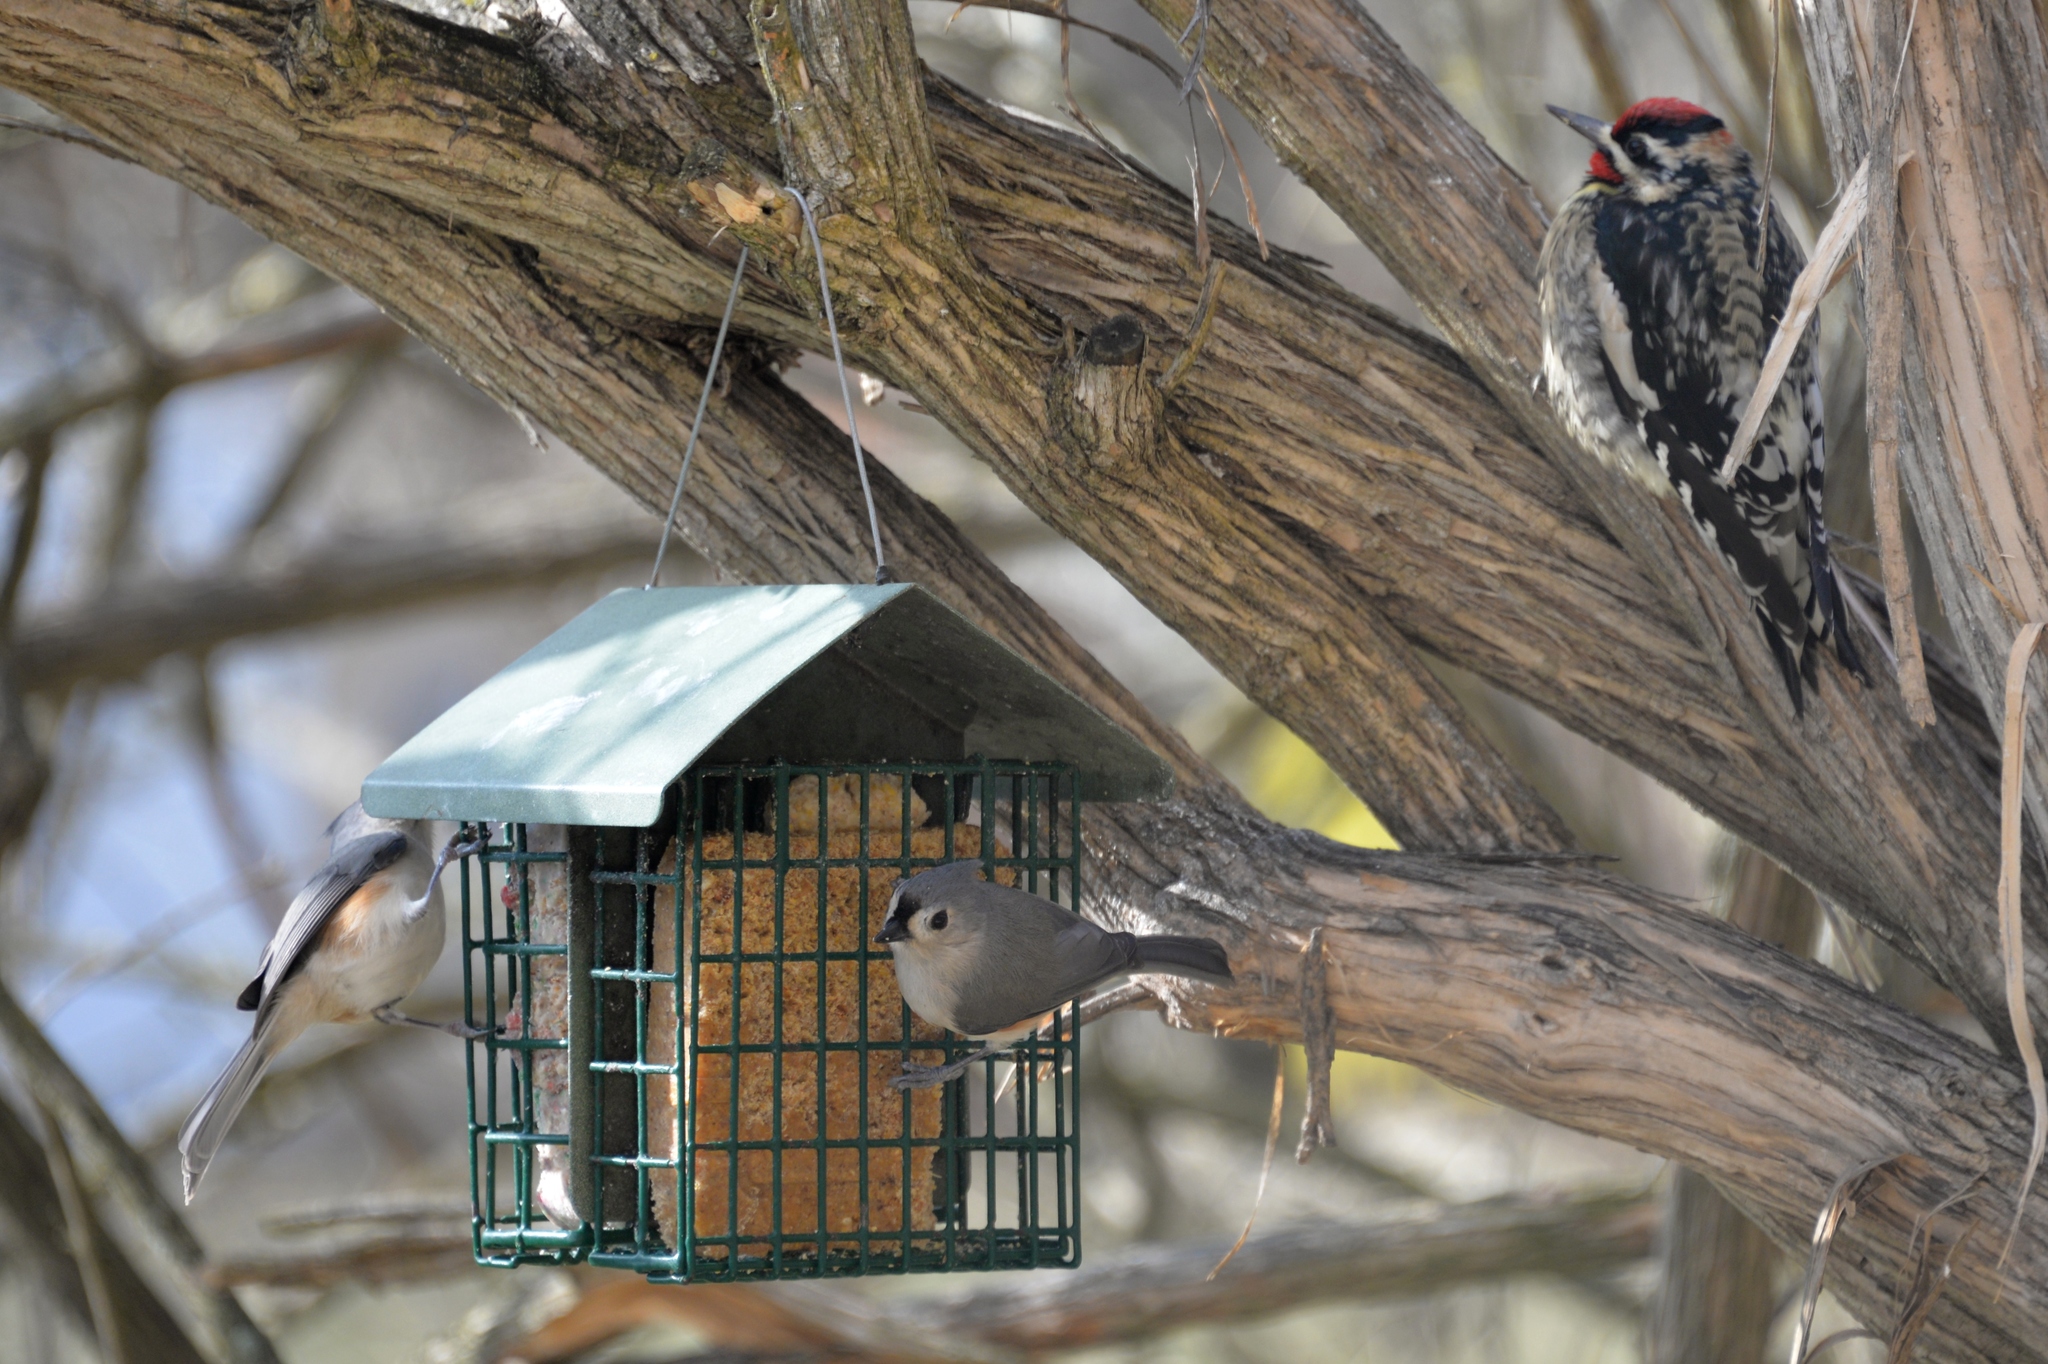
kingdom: Animalia
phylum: Chordata
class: Aves
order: Passeriformes
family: Paridae
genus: Baeolophus
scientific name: Baeolophus bicolor
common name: Tufted titmouse
